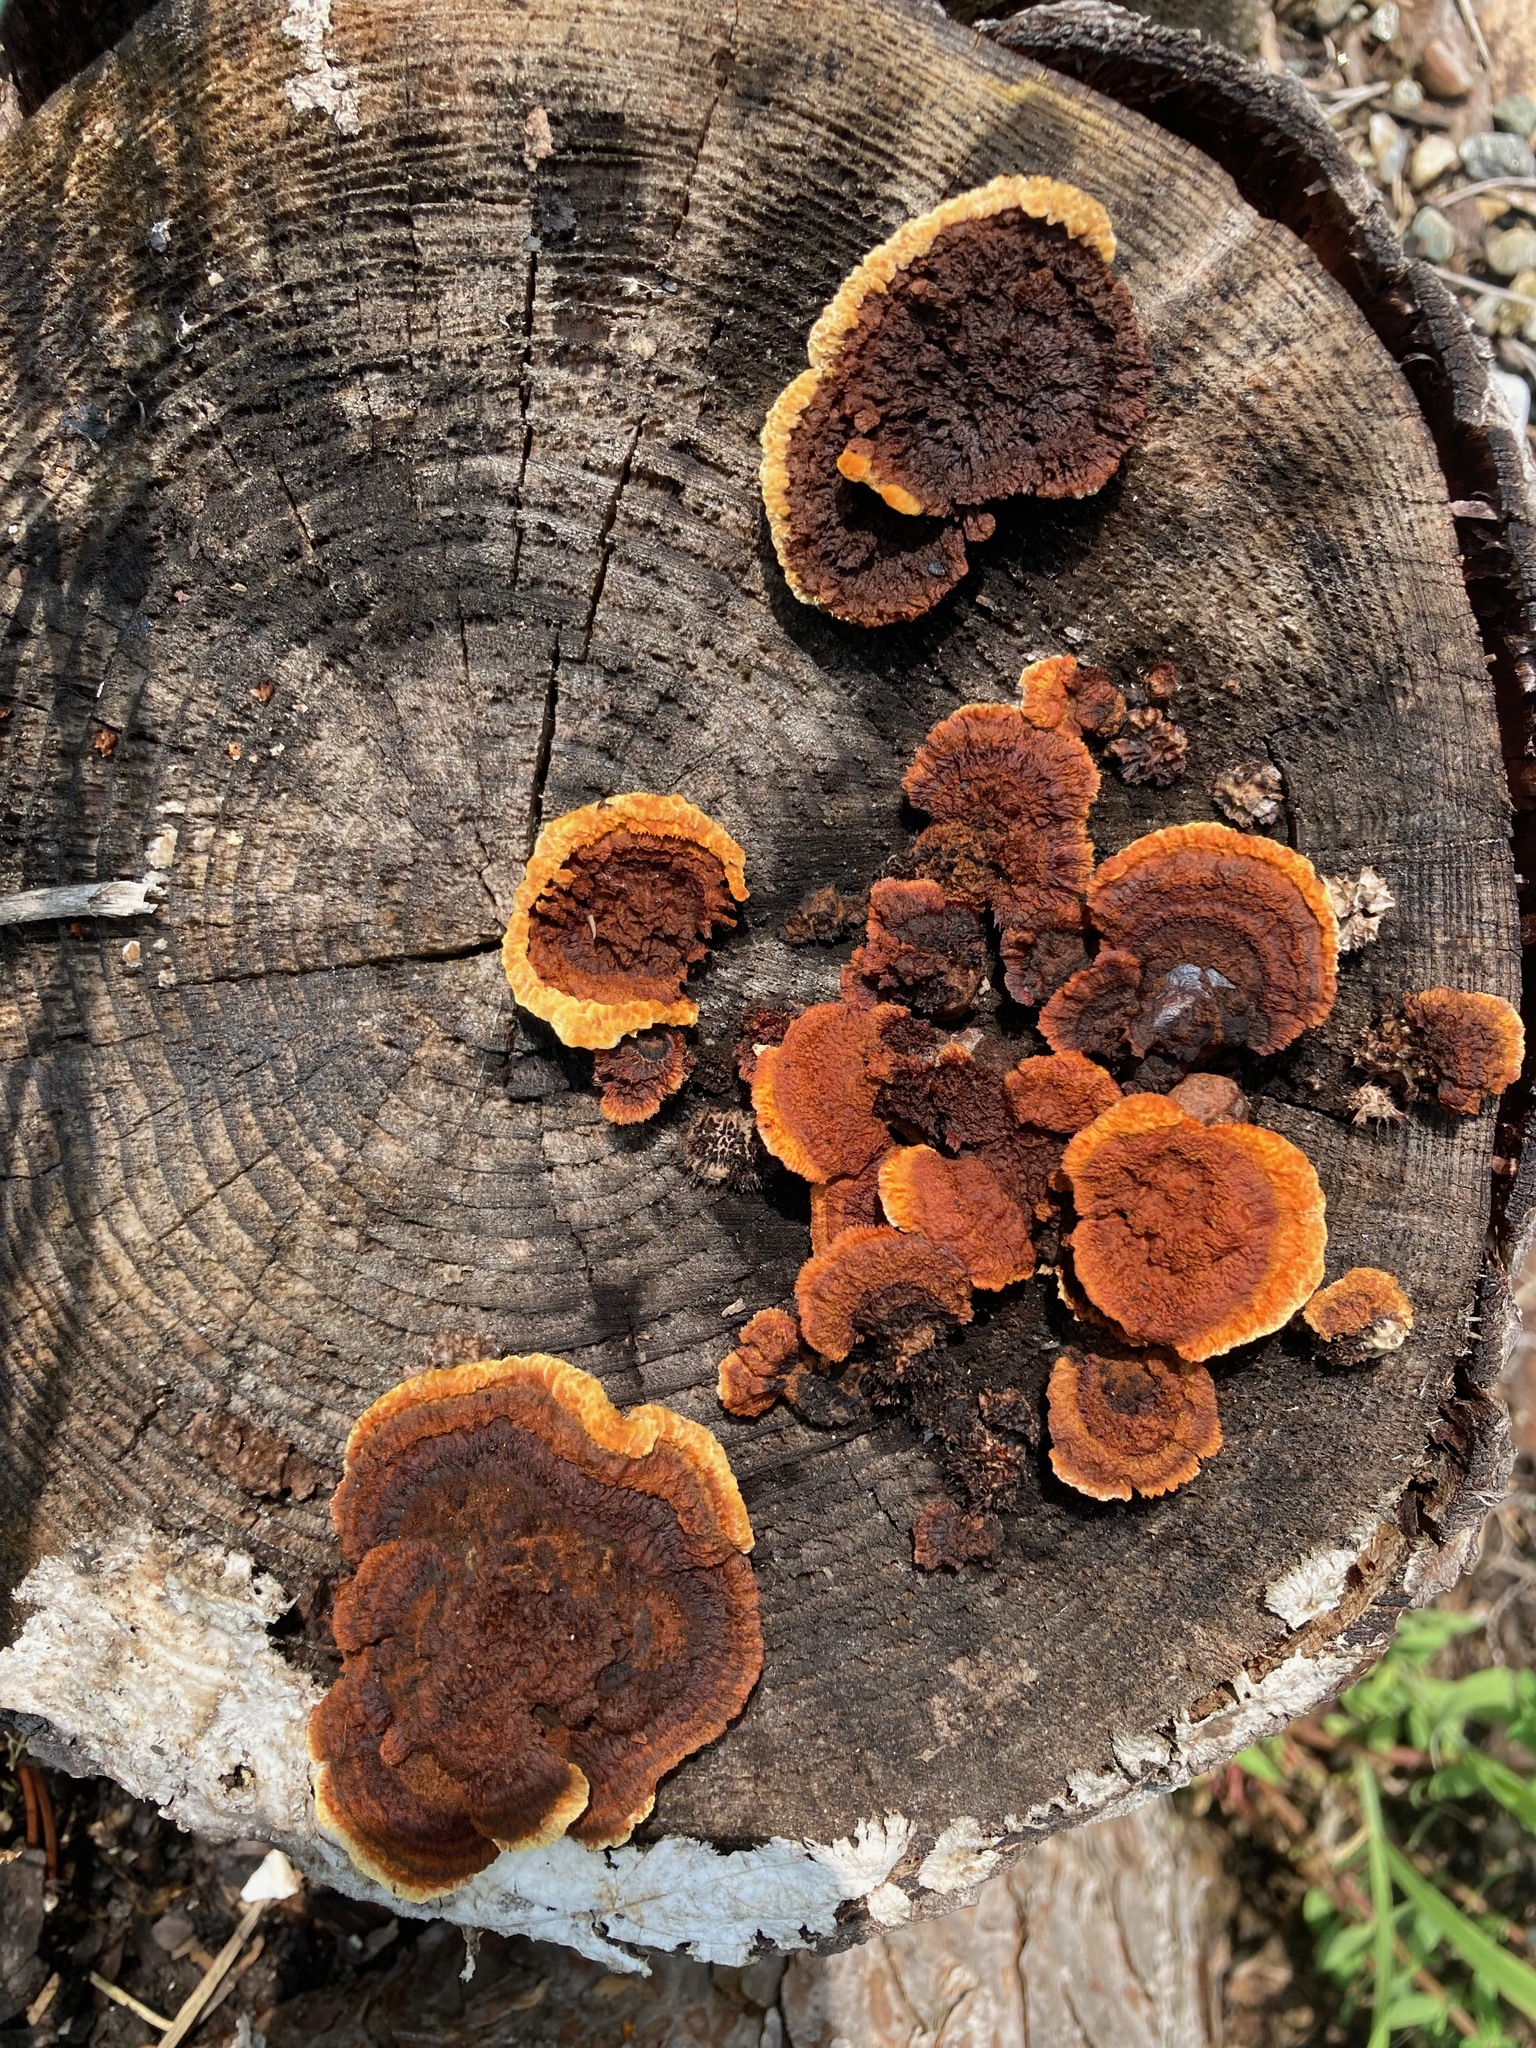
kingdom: Fungi
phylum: Basidiomycota
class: Agaricomycetes
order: Gloeophyllales
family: Gloeophyllaceae
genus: Gloeophyllum
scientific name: Gloeophyllum sepiarium
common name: Conifer mazegill
